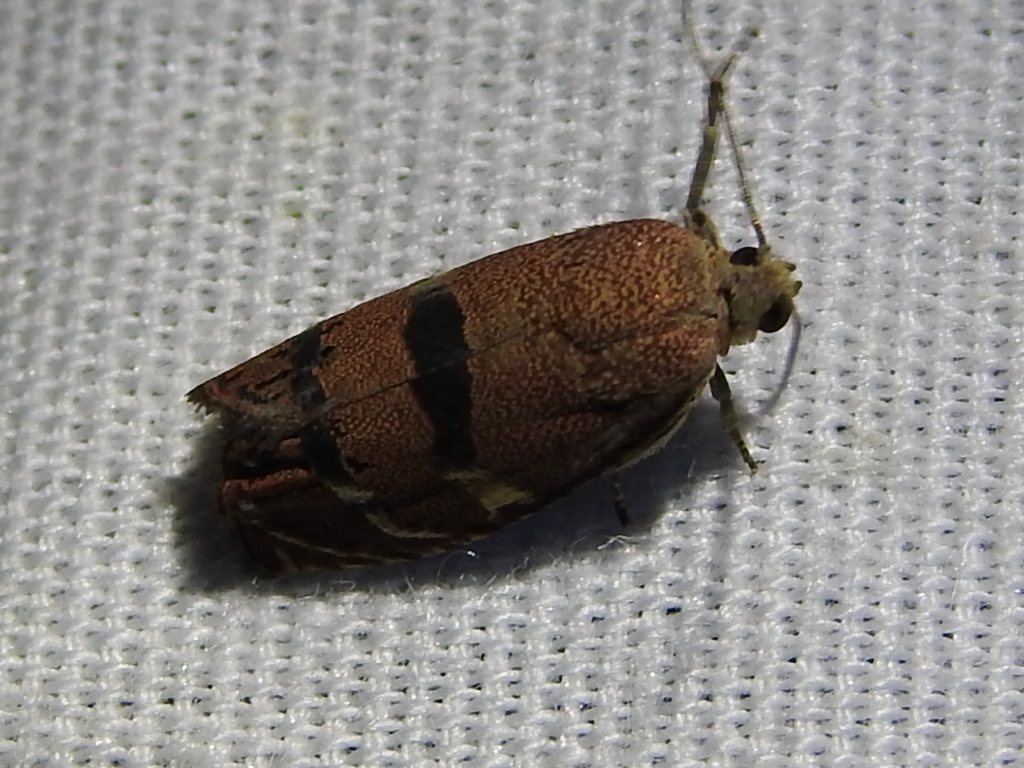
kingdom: Animalia
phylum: Arthropoda
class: Insecta
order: Lepidoptera
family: Tortricidae
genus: Cydia
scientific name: Cydia latiferreana
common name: Filbertworm moth
